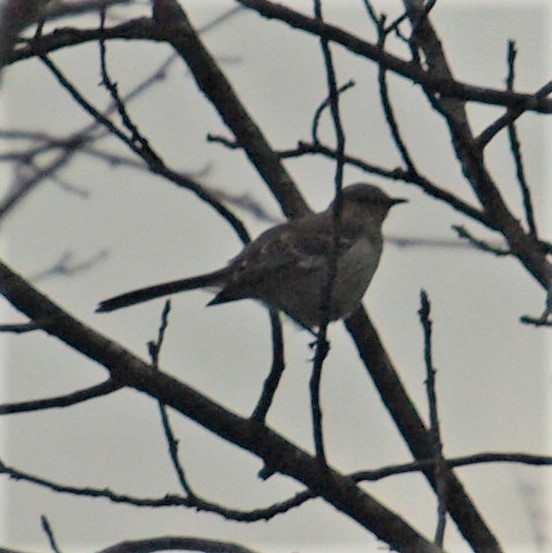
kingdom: Animalia
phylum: Chordata
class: Aves
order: Passeriformes
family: Mimidae
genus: Mimus
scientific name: Mimus polyglottos
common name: Northern mockingbird
